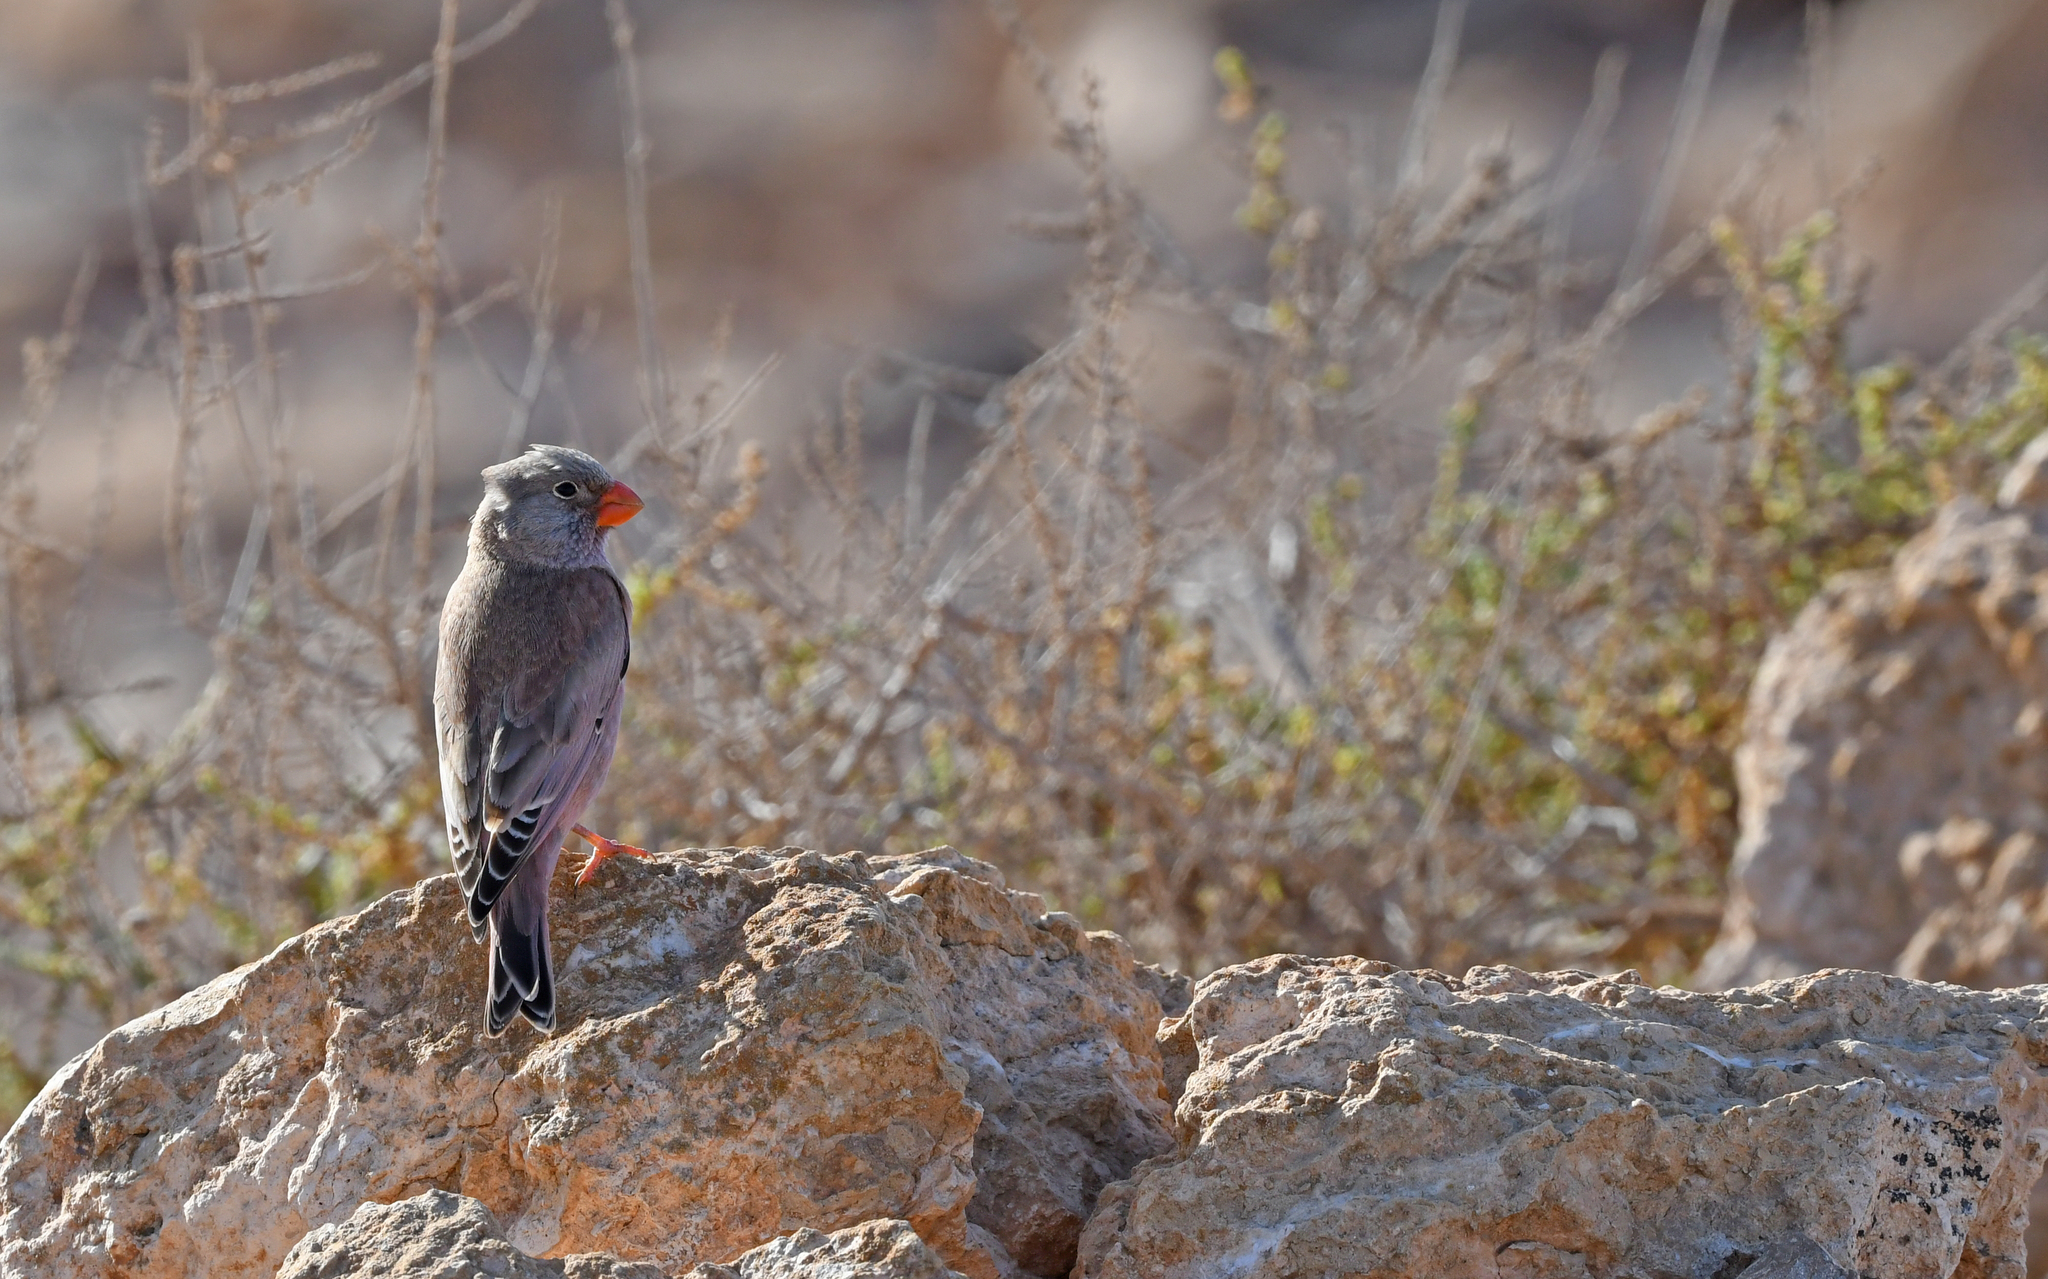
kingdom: Animalia
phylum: Chordata
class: Aves
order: Passeriformes
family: Fringillidae
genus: Bucanetes
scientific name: Bucanetes githagineus
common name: Trumpeter finch
